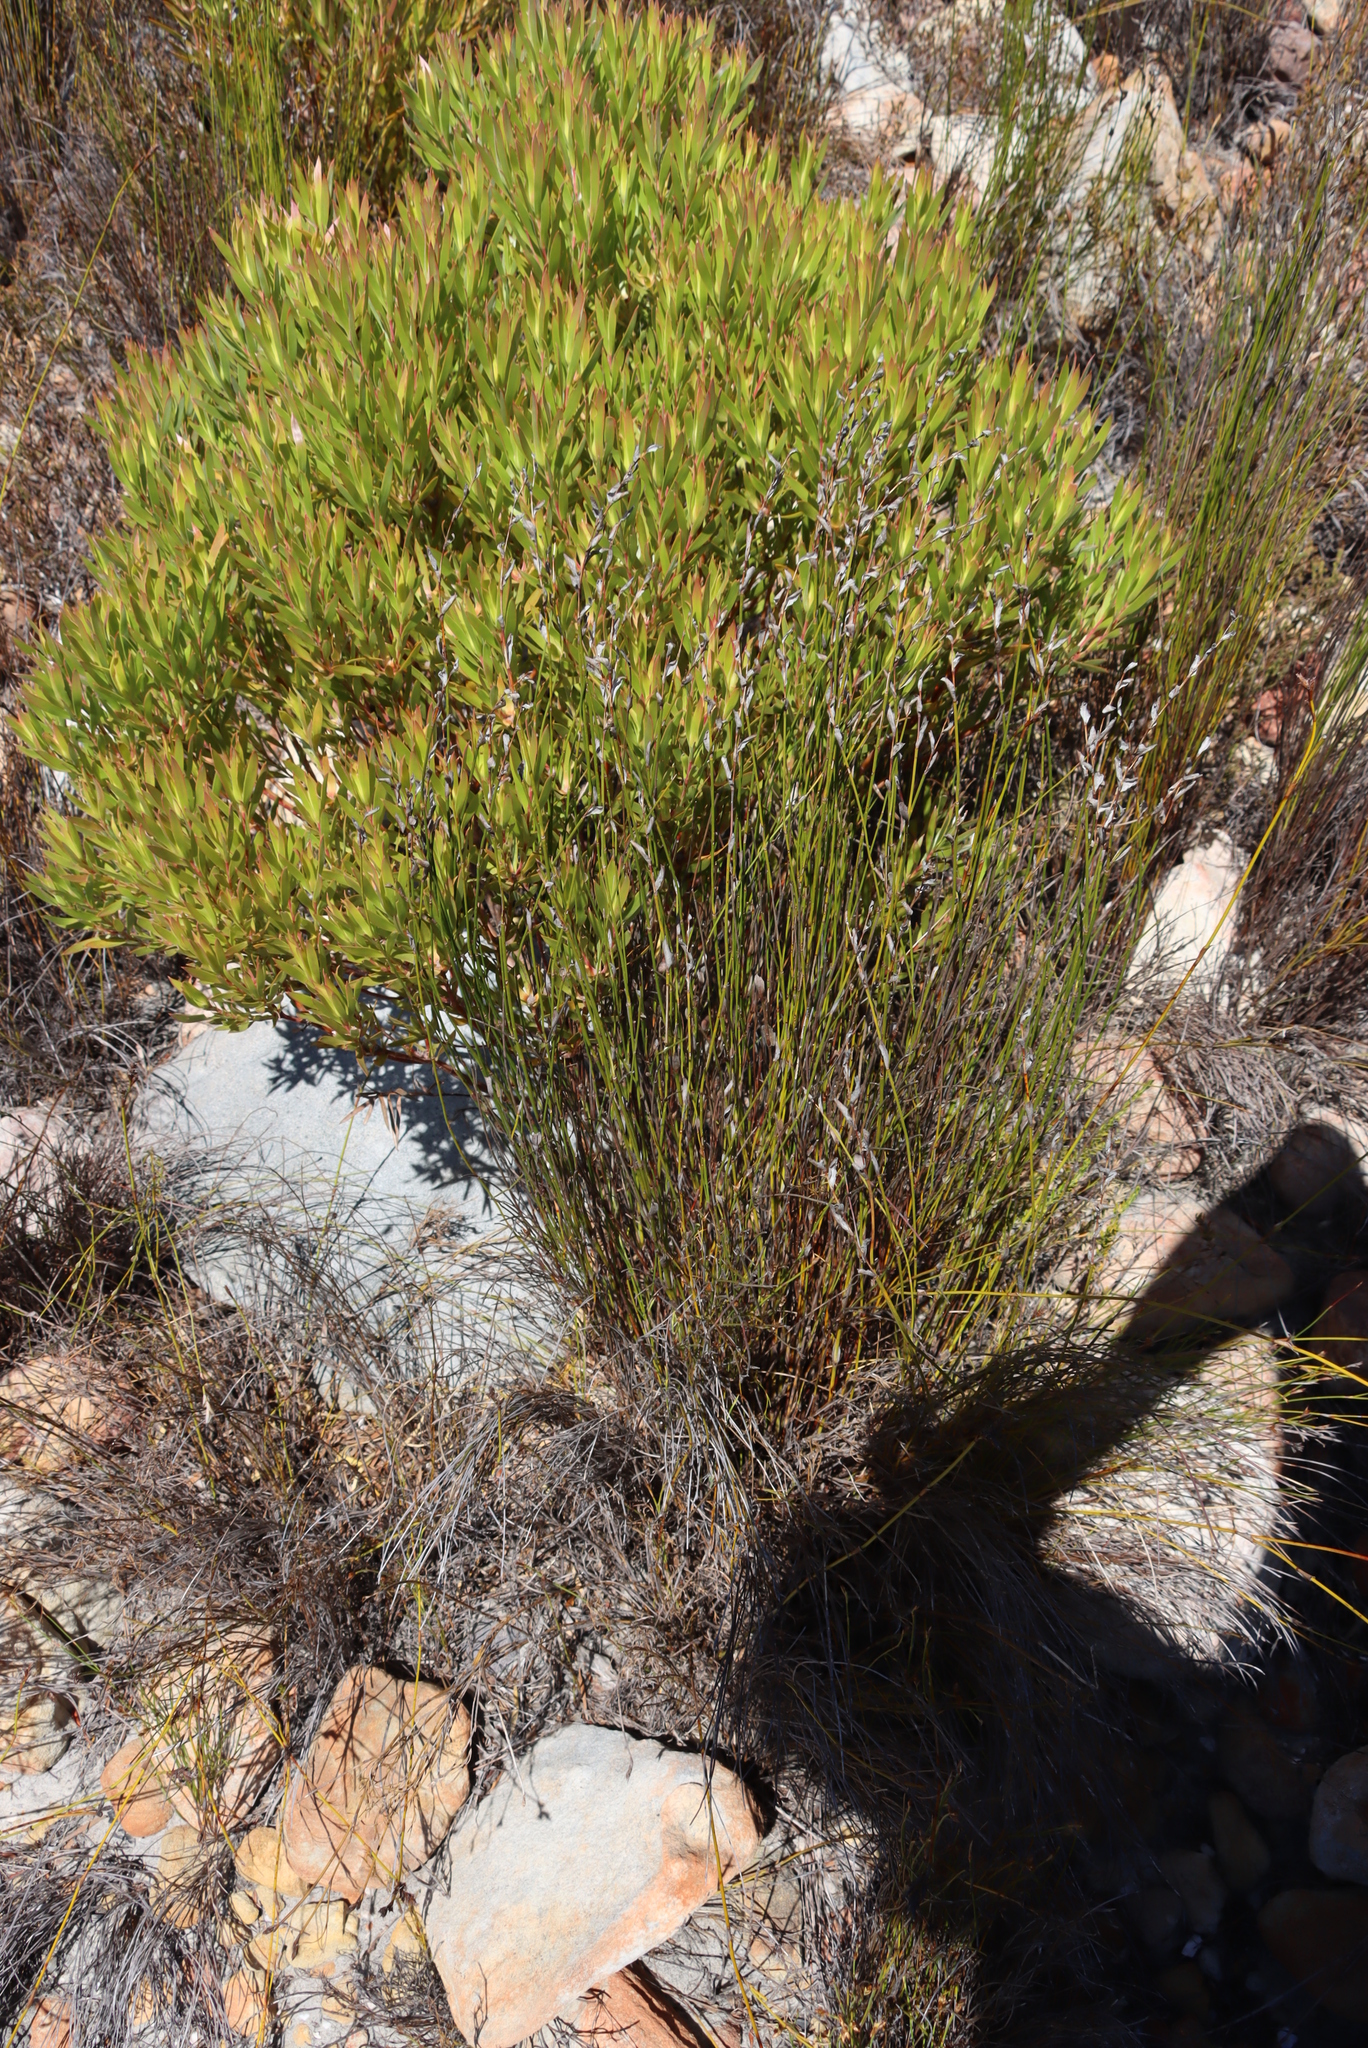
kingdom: Plantae
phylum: Tracheophyta
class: Magnoliopsida
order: Proteales
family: Proteaceae
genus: Leucadendron
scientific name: Leucadendron xanthoconus
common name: Sickle-leaf conebush
